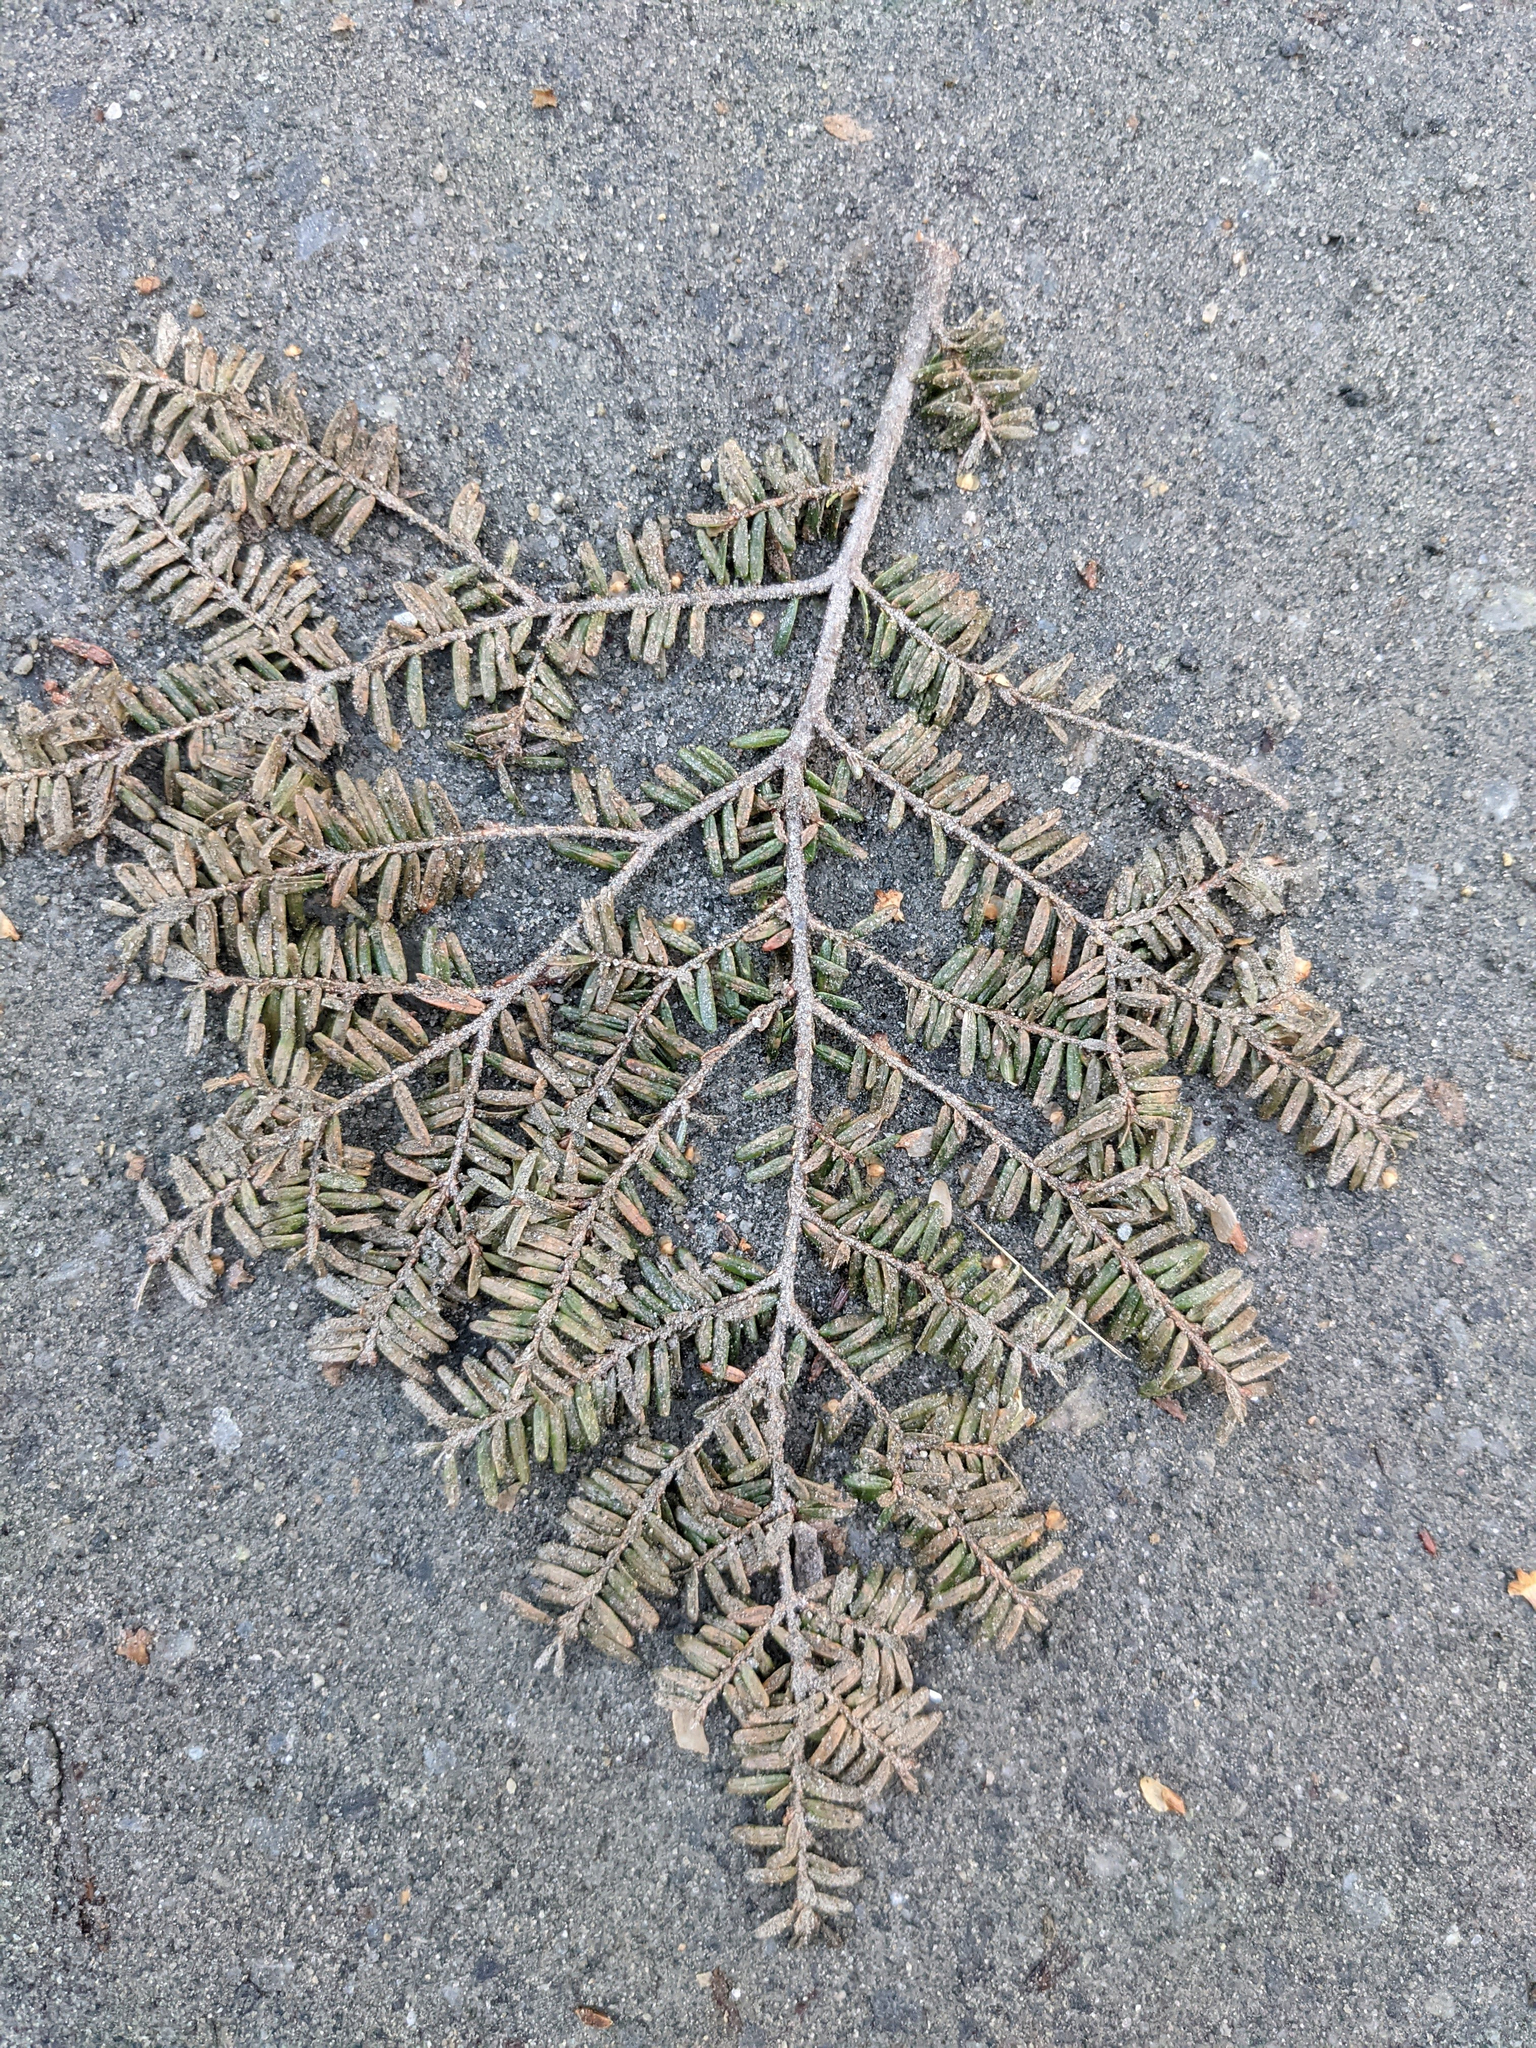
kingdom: Plantae
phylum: Tracheophyta
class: Pinopsida
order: Pinales
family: Pinaceae
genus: Tsuga
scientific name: Tsuga canadensis
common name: Eastern hemlock
